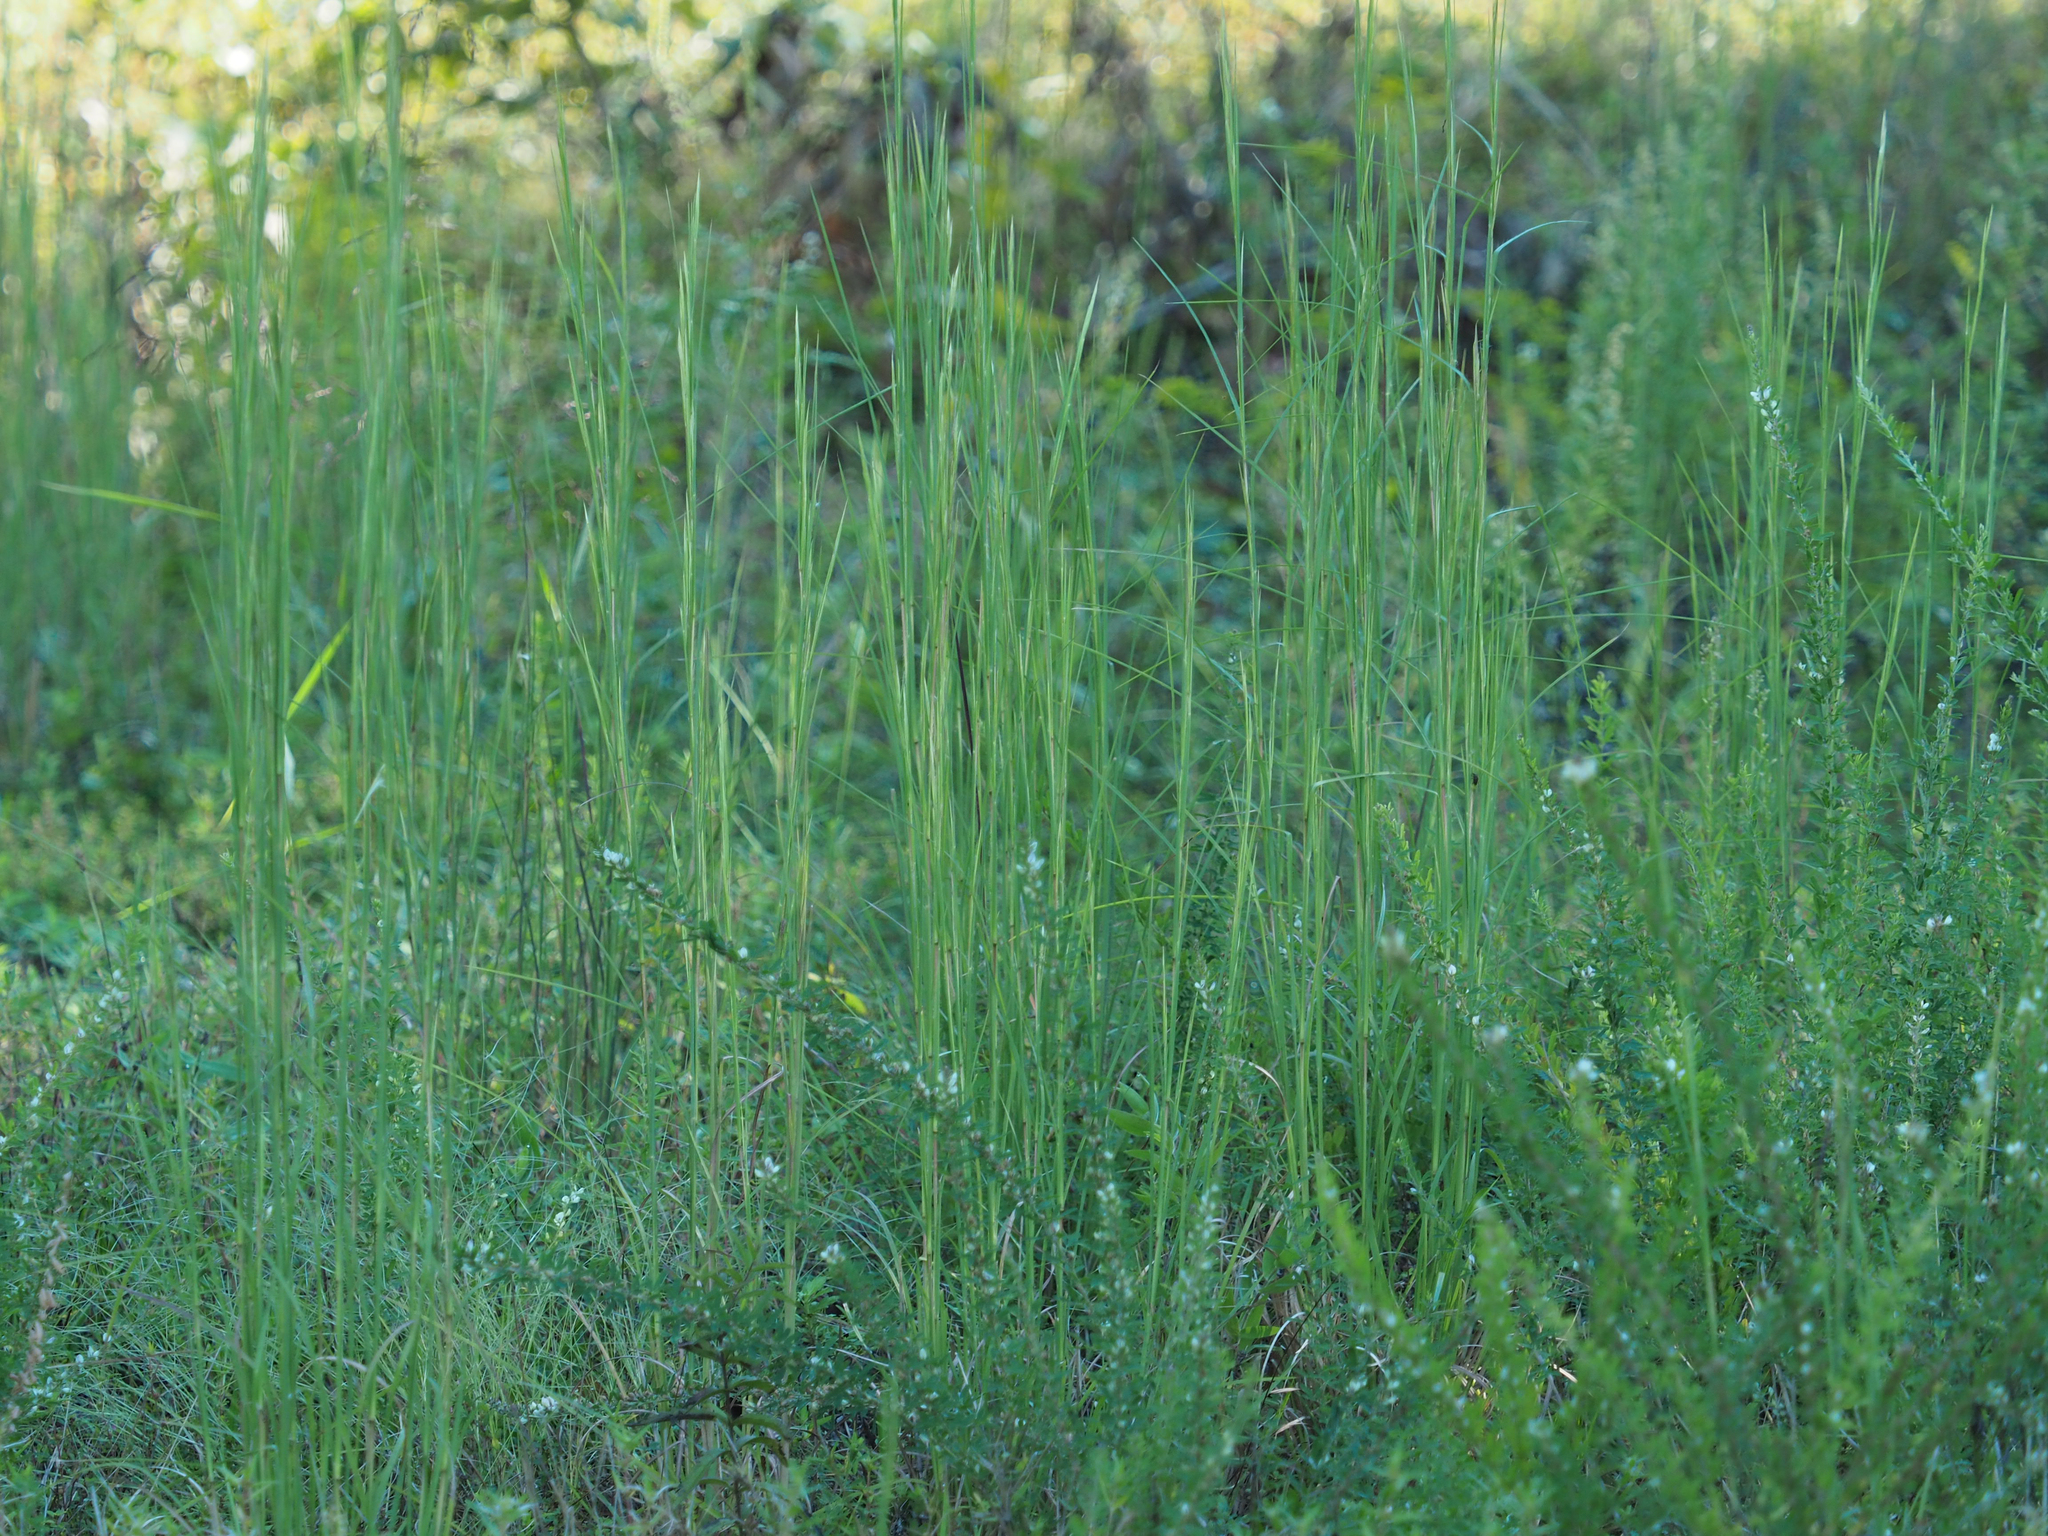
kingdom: Plantae
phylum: Tracheophyta
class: Liliopsida
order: Poales
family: Poaceae
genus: Andropogon
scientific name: Andropogon virginicus
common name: Broomsedge bluestem
